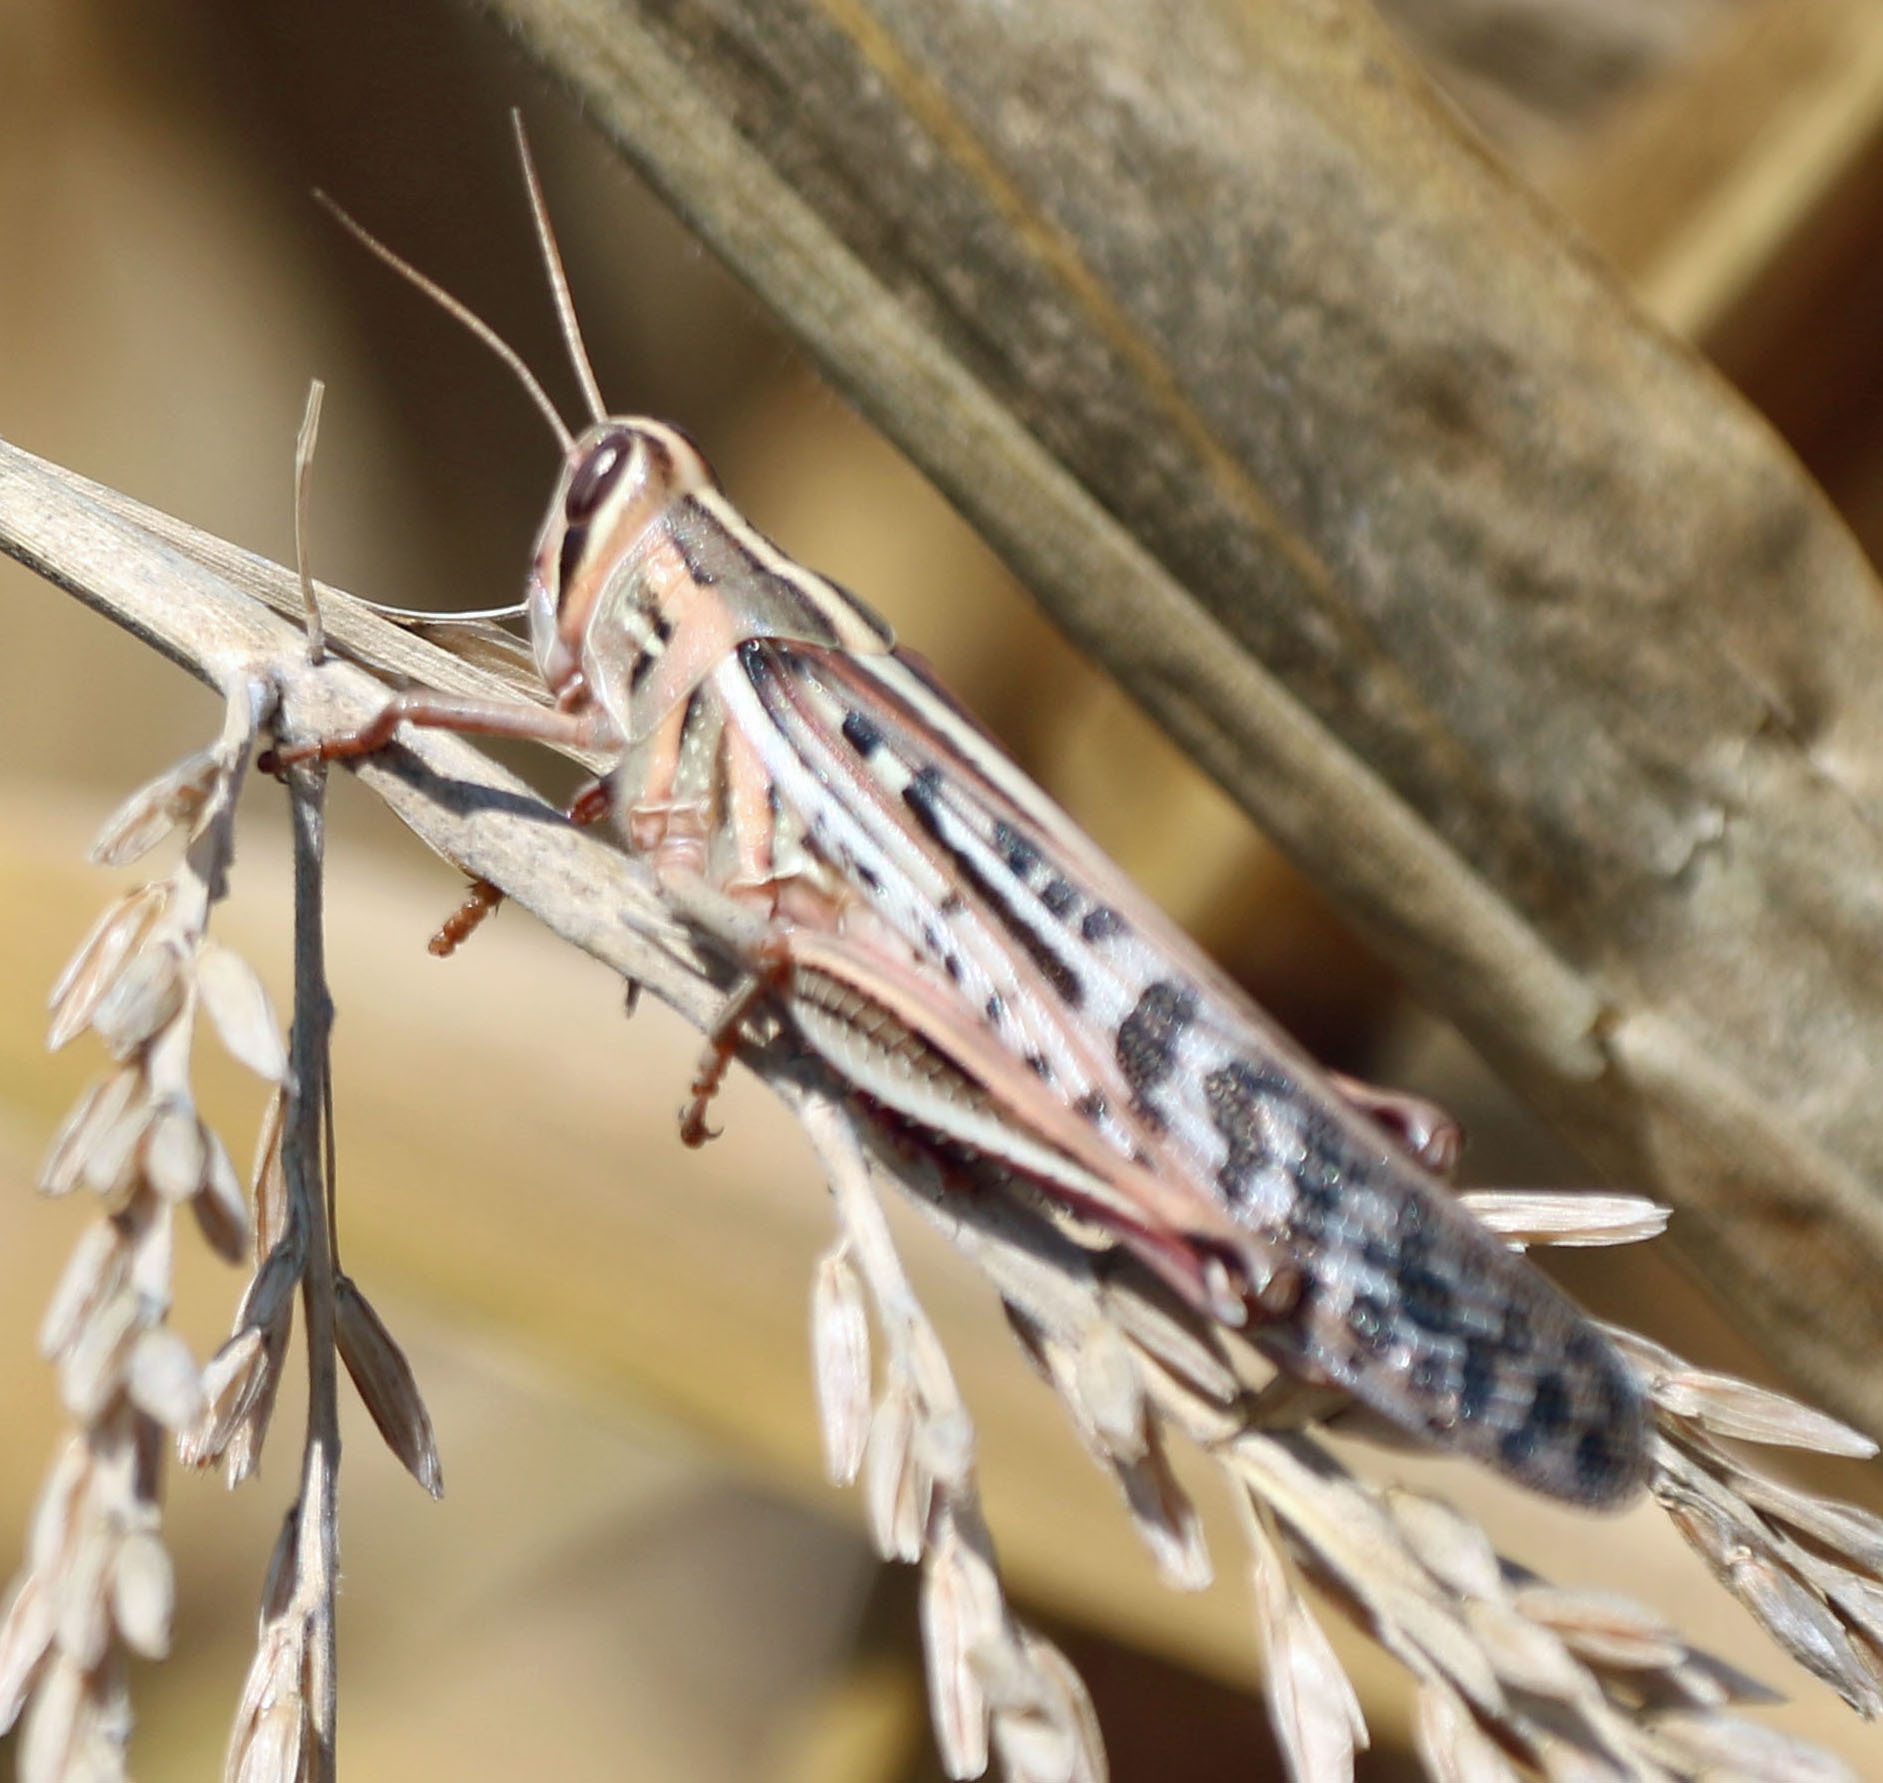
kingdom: Animalia
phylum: Arthropoda
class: Insecta
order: Orthoptera
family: Acrididae
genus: Schistocerca
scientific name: Schistocerca americana
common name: American bird locust
